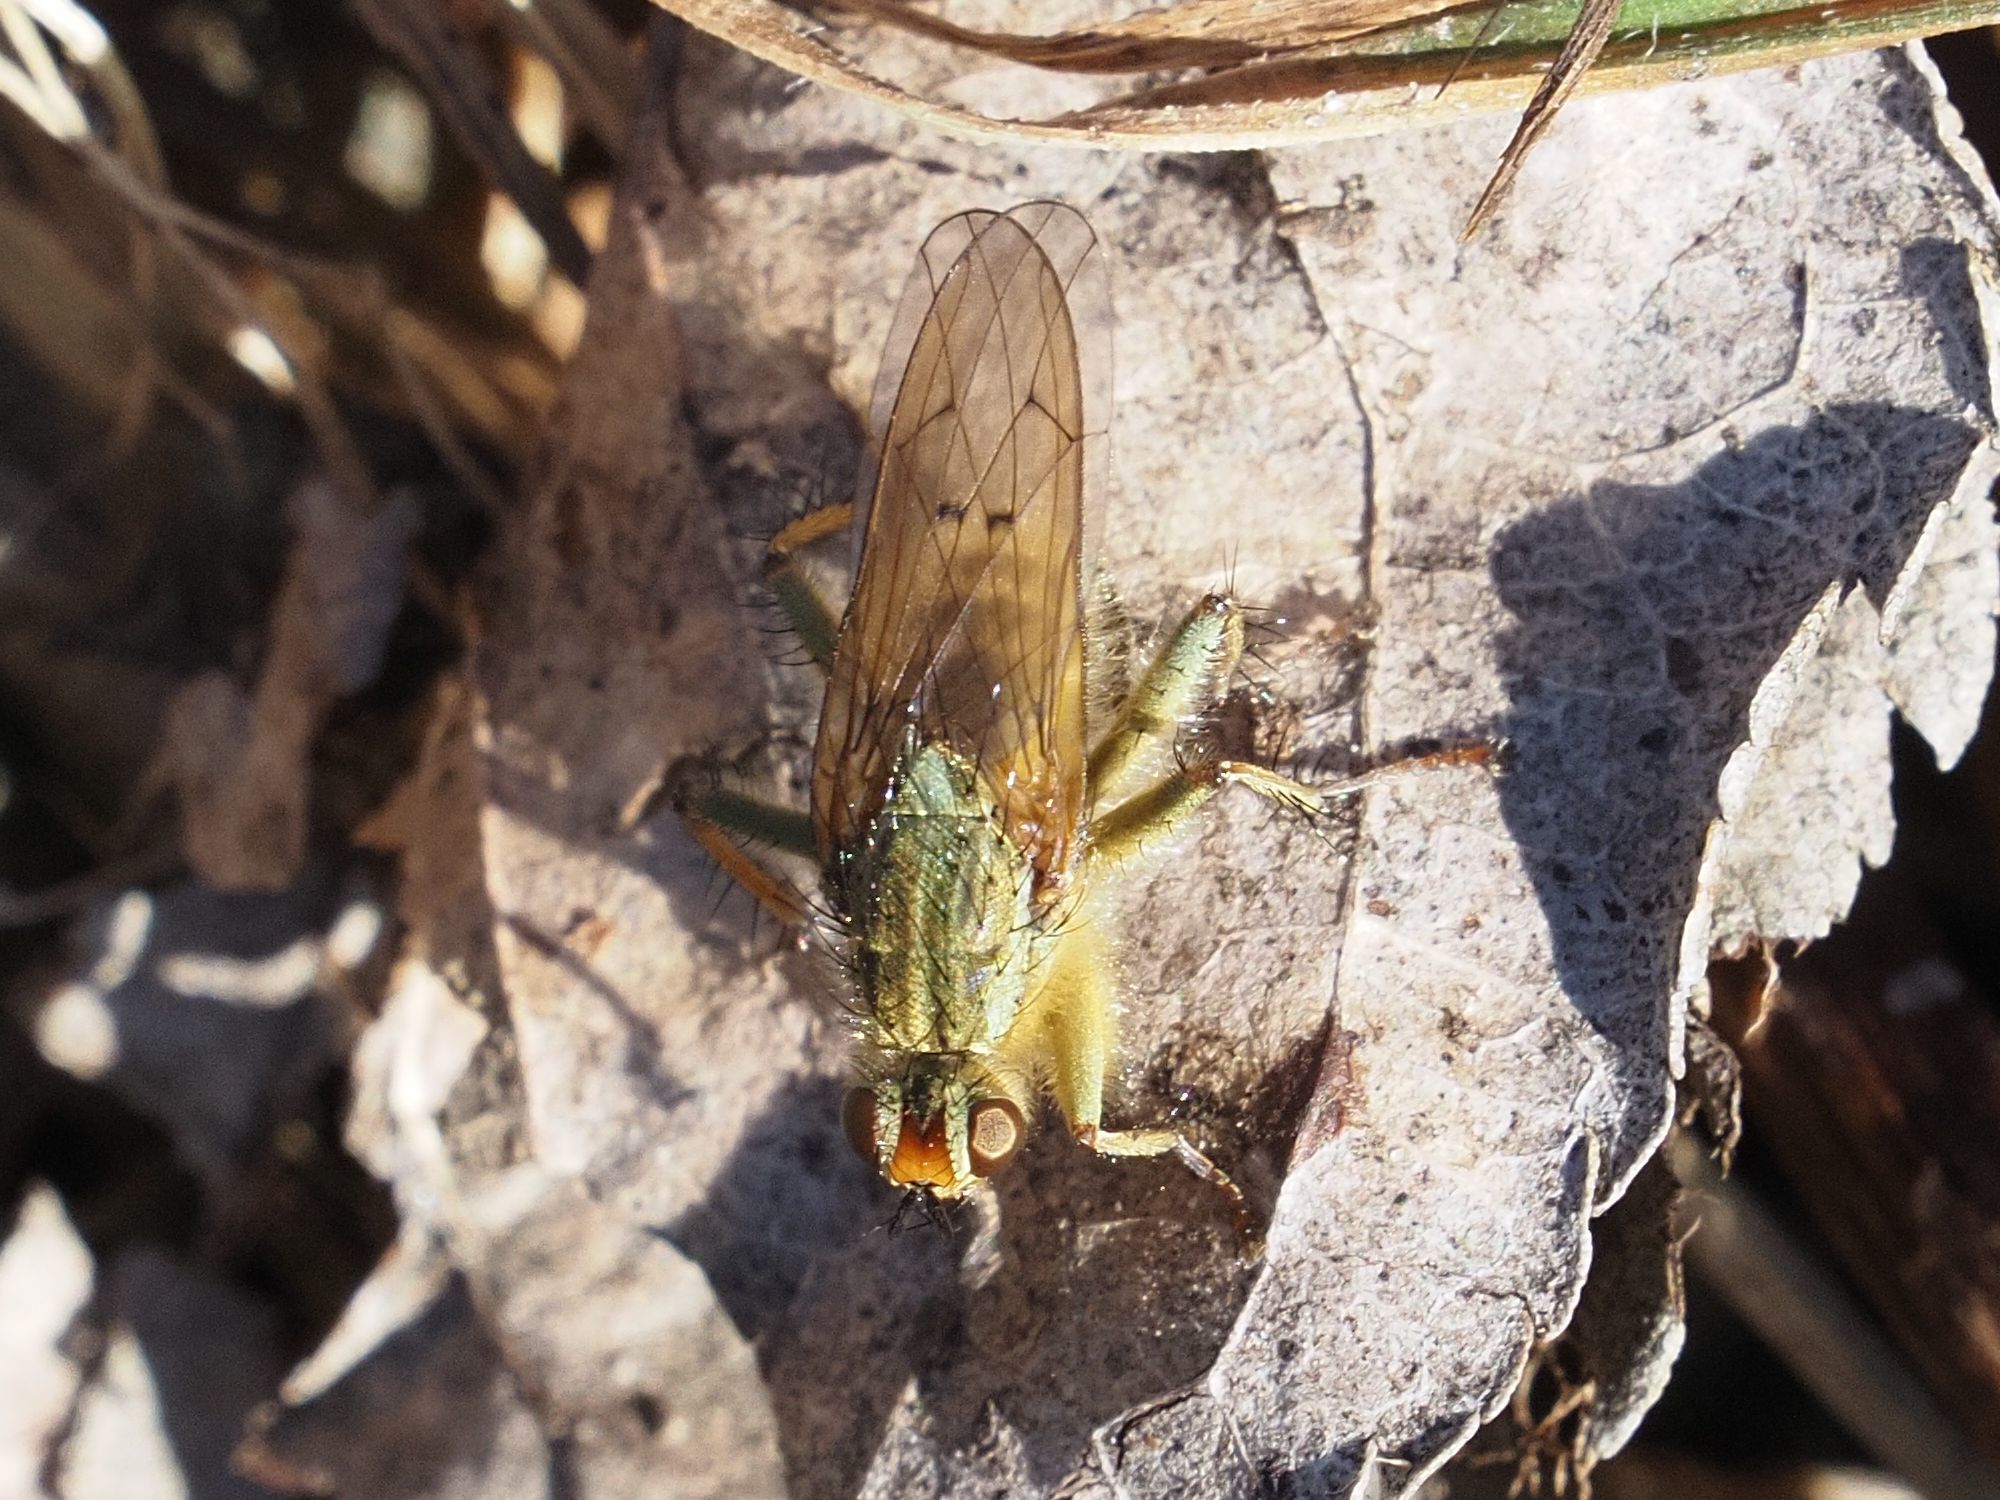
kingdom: Animalia
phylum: Arthropoda
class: Insecta
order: Diptera
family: Scathophagidae
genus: Scathophaga
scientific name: Scathophaga stercoraria
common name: Yellow dung fly
